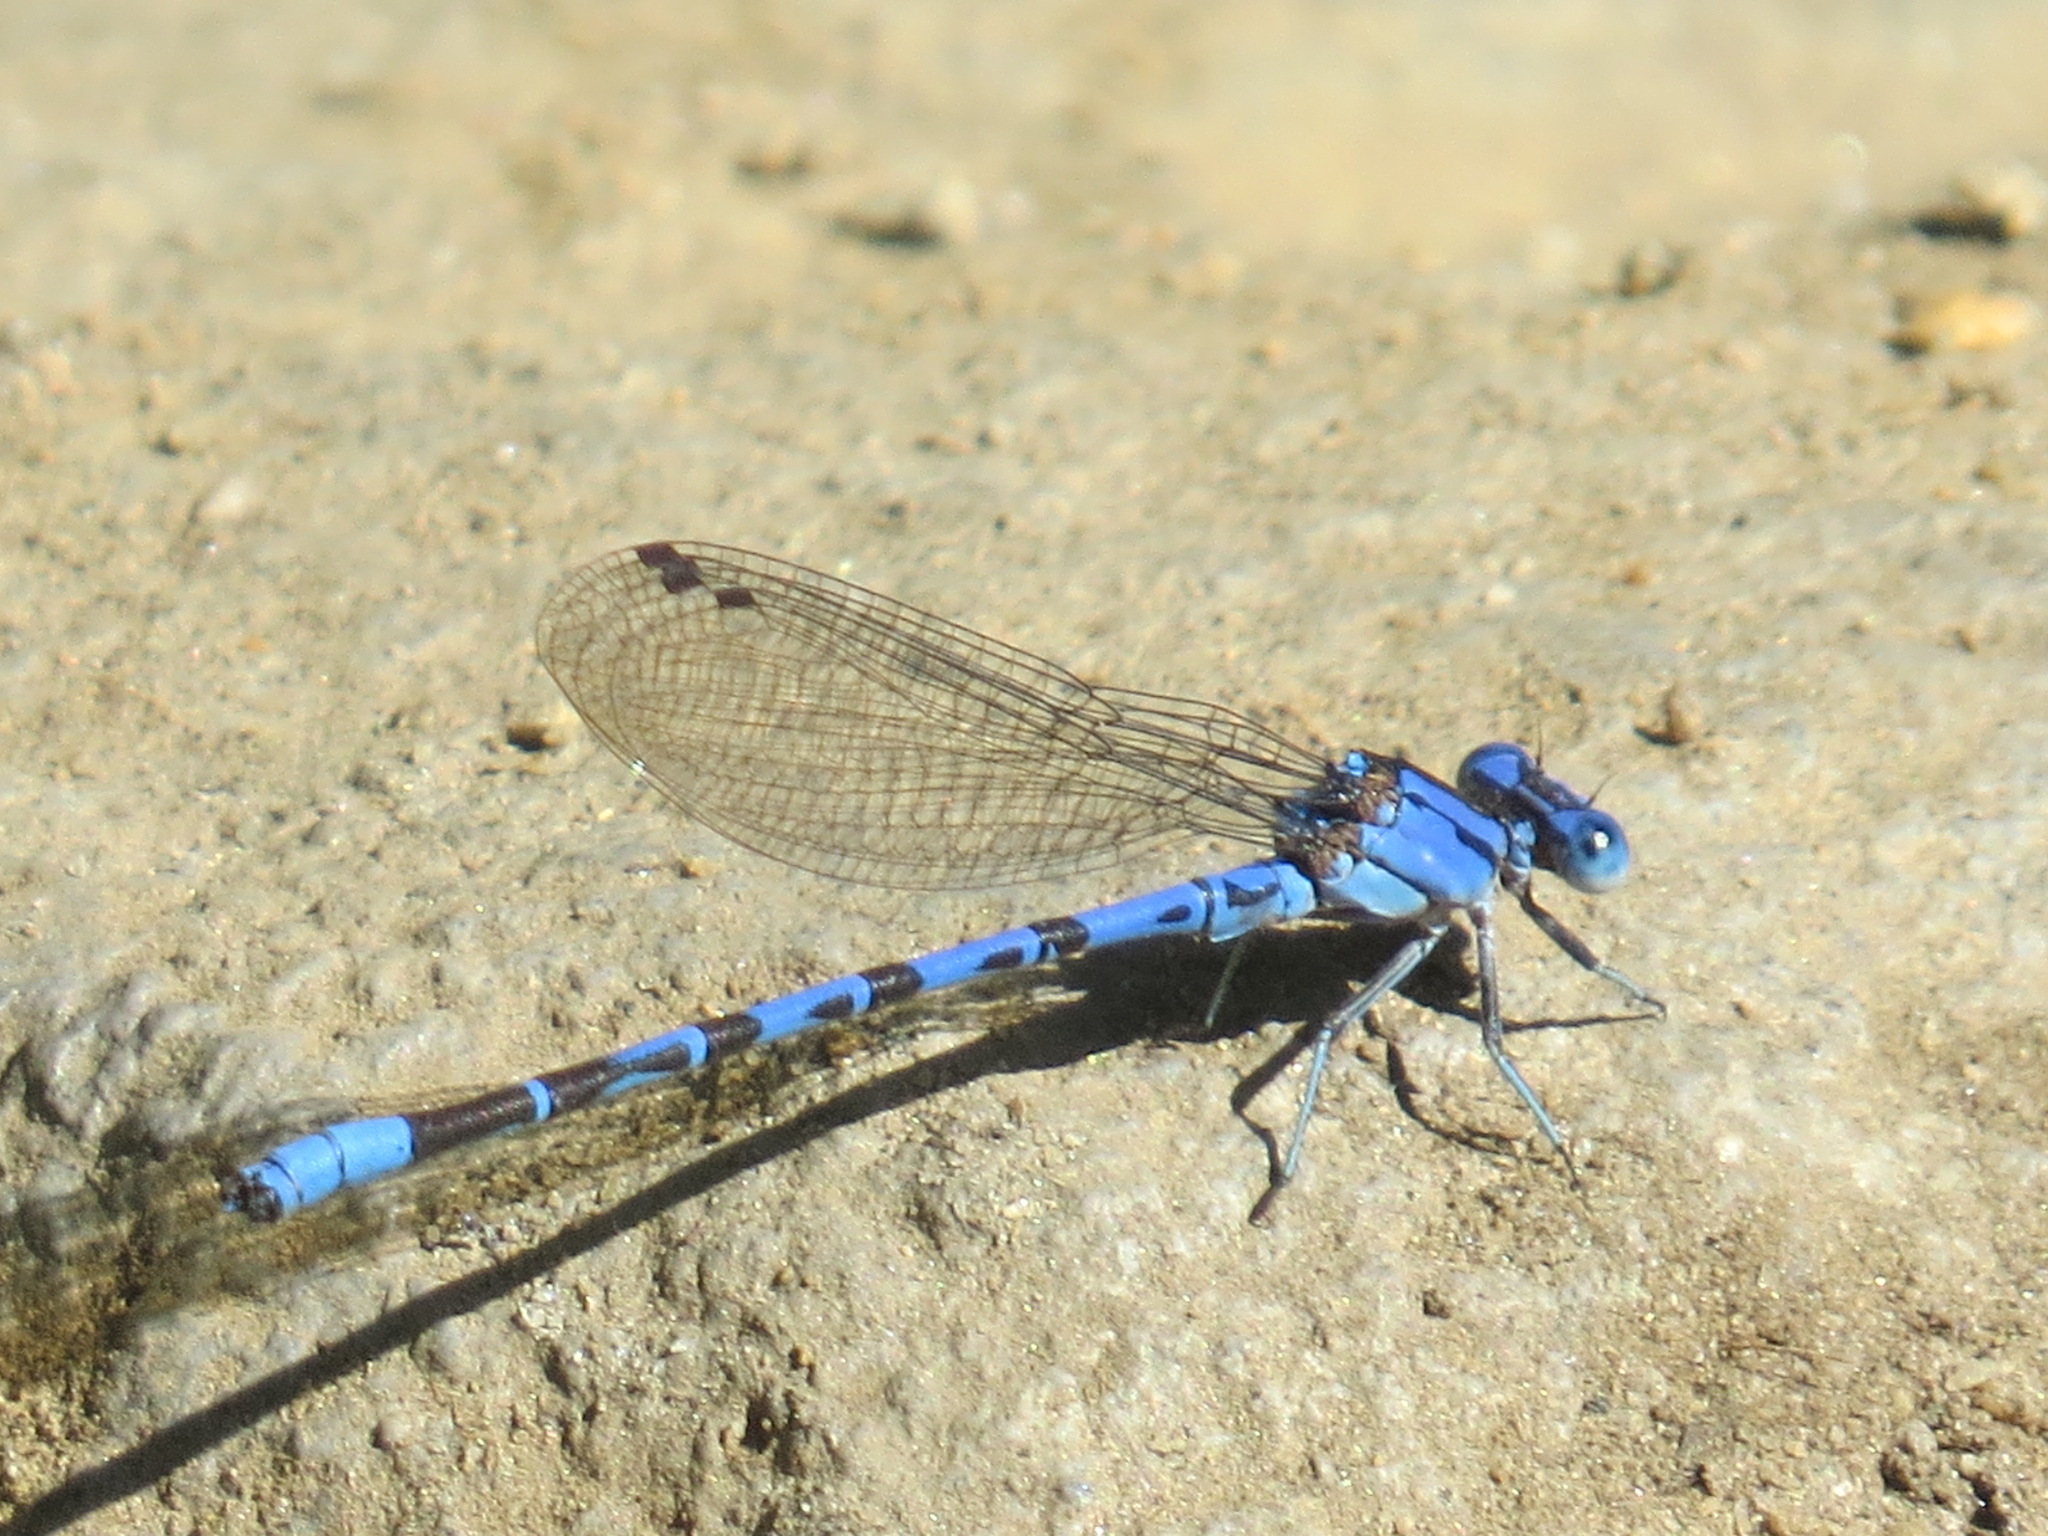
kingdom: Animalia
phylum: Arthropoda
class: Insecta
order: Odonata
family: Coenagrionidae
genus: Argia
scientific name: Argia vivida
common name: Vivid dancer
